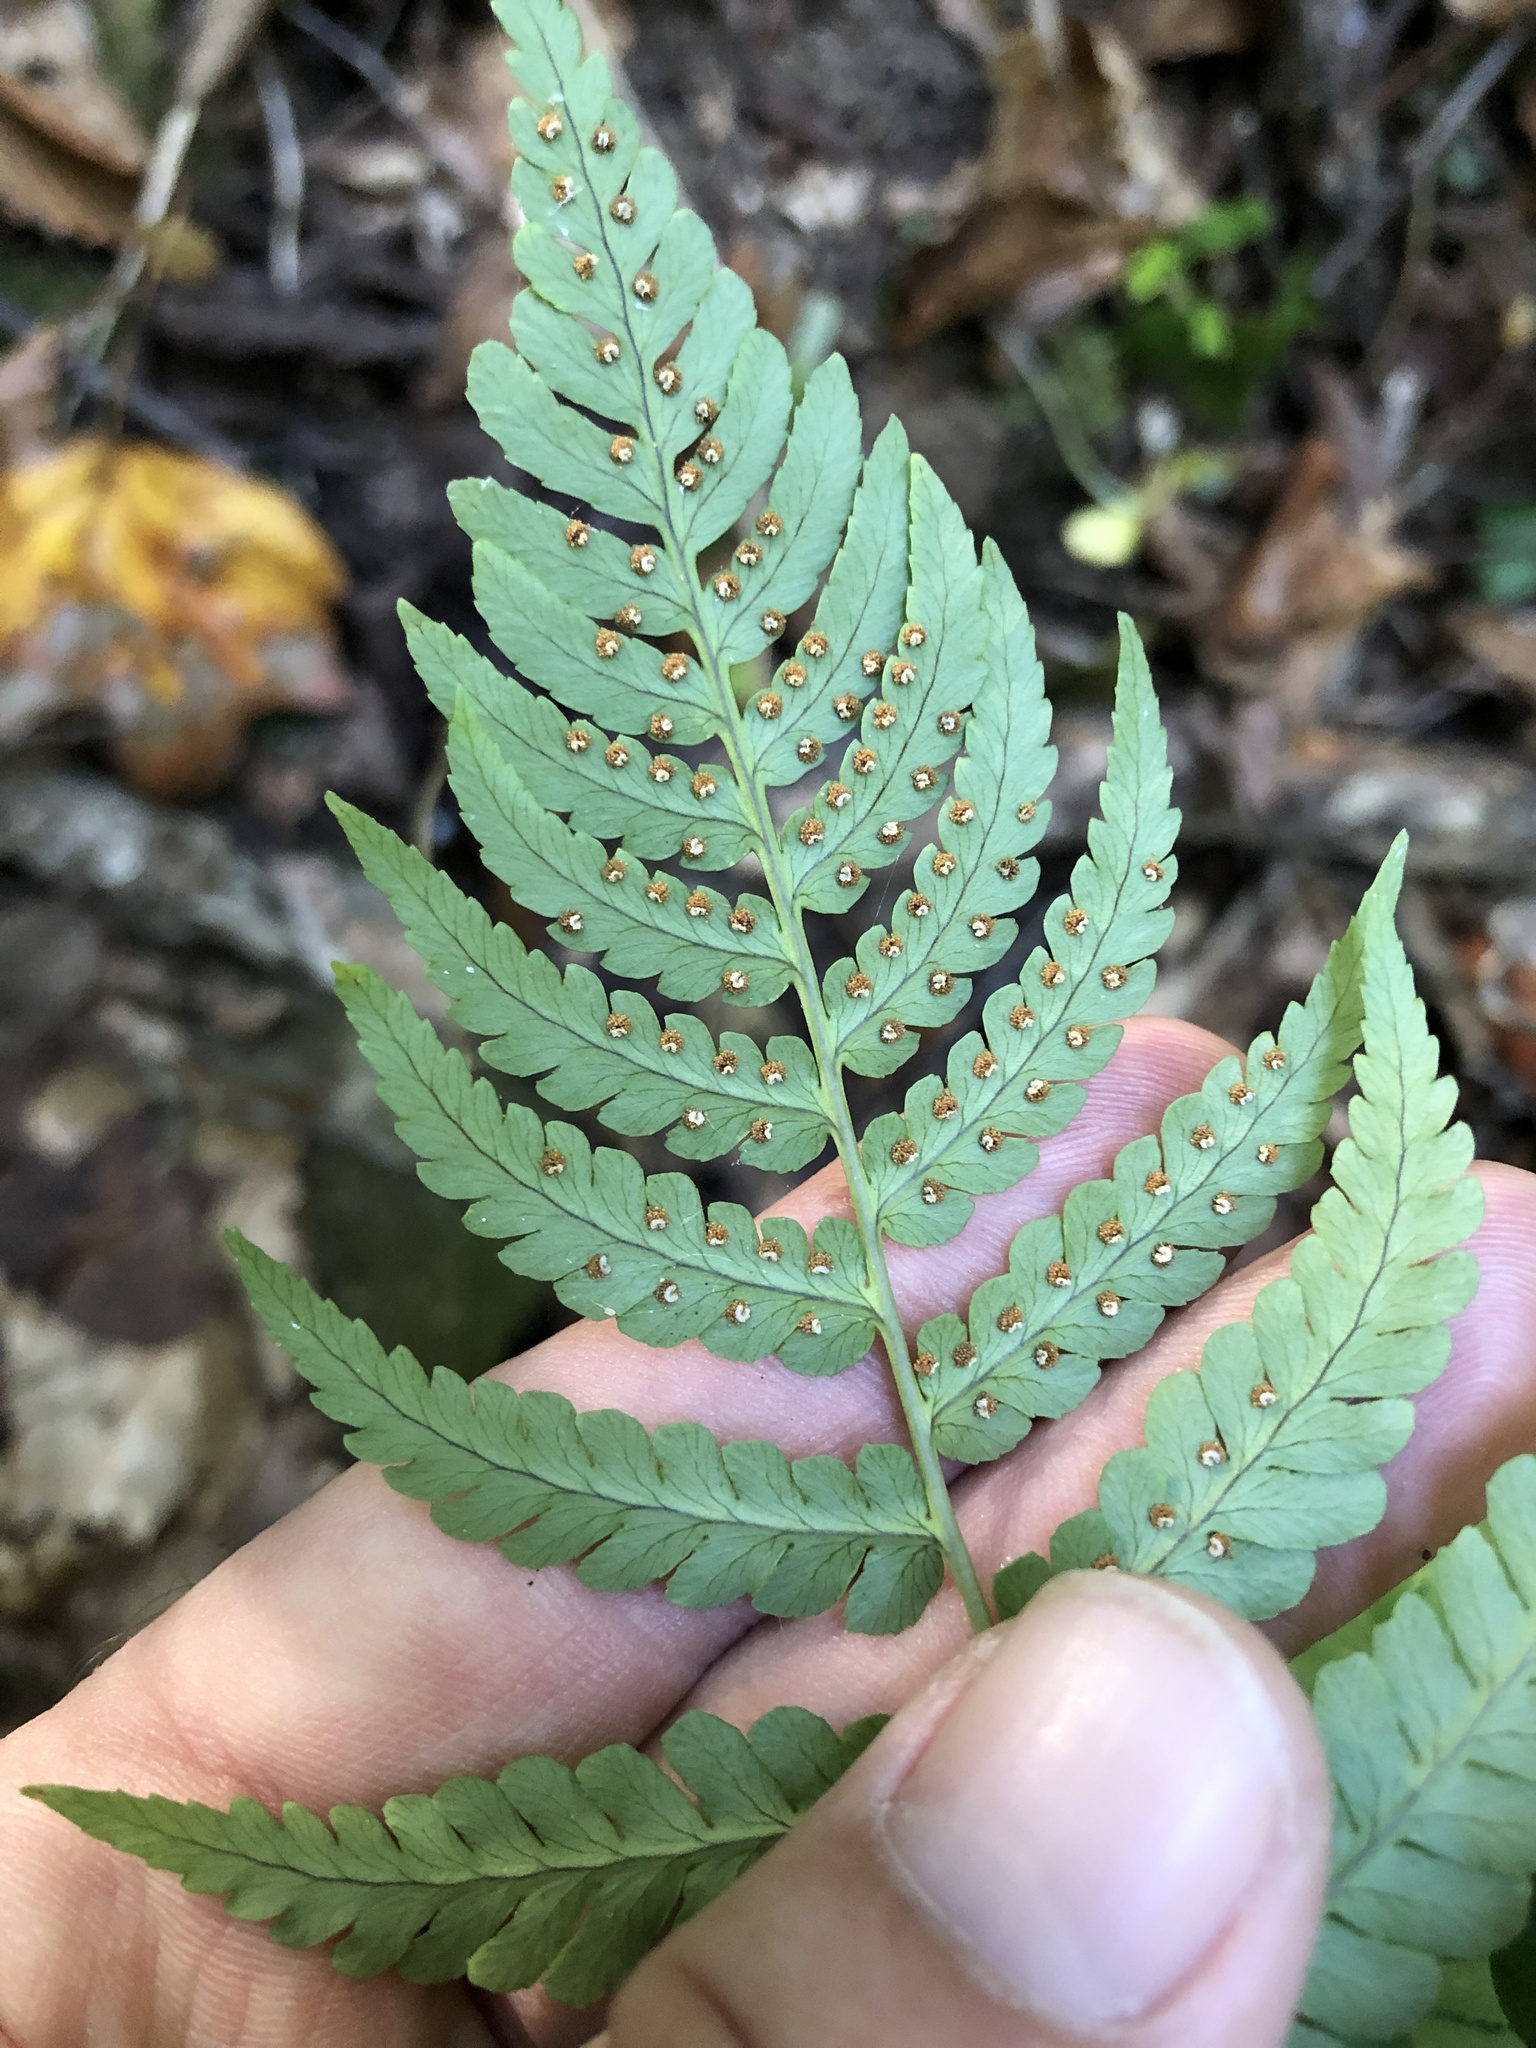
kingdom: Plantae
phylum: Tracheophyta
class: Polypodiopsida
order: Polypodiales
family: Dryopteridaceae
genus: Dryopteris
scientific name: Dryopteris marginalis
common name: Marginal wood fern
